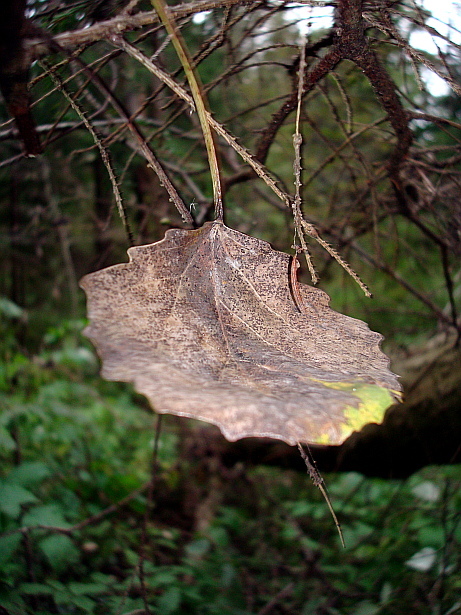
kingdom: Plantae
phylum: Tracheophyta
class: Magnoliopsida
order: Malpighiales
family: Salicaceae
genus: Populus
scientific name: Populus tremula
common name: European aspen
